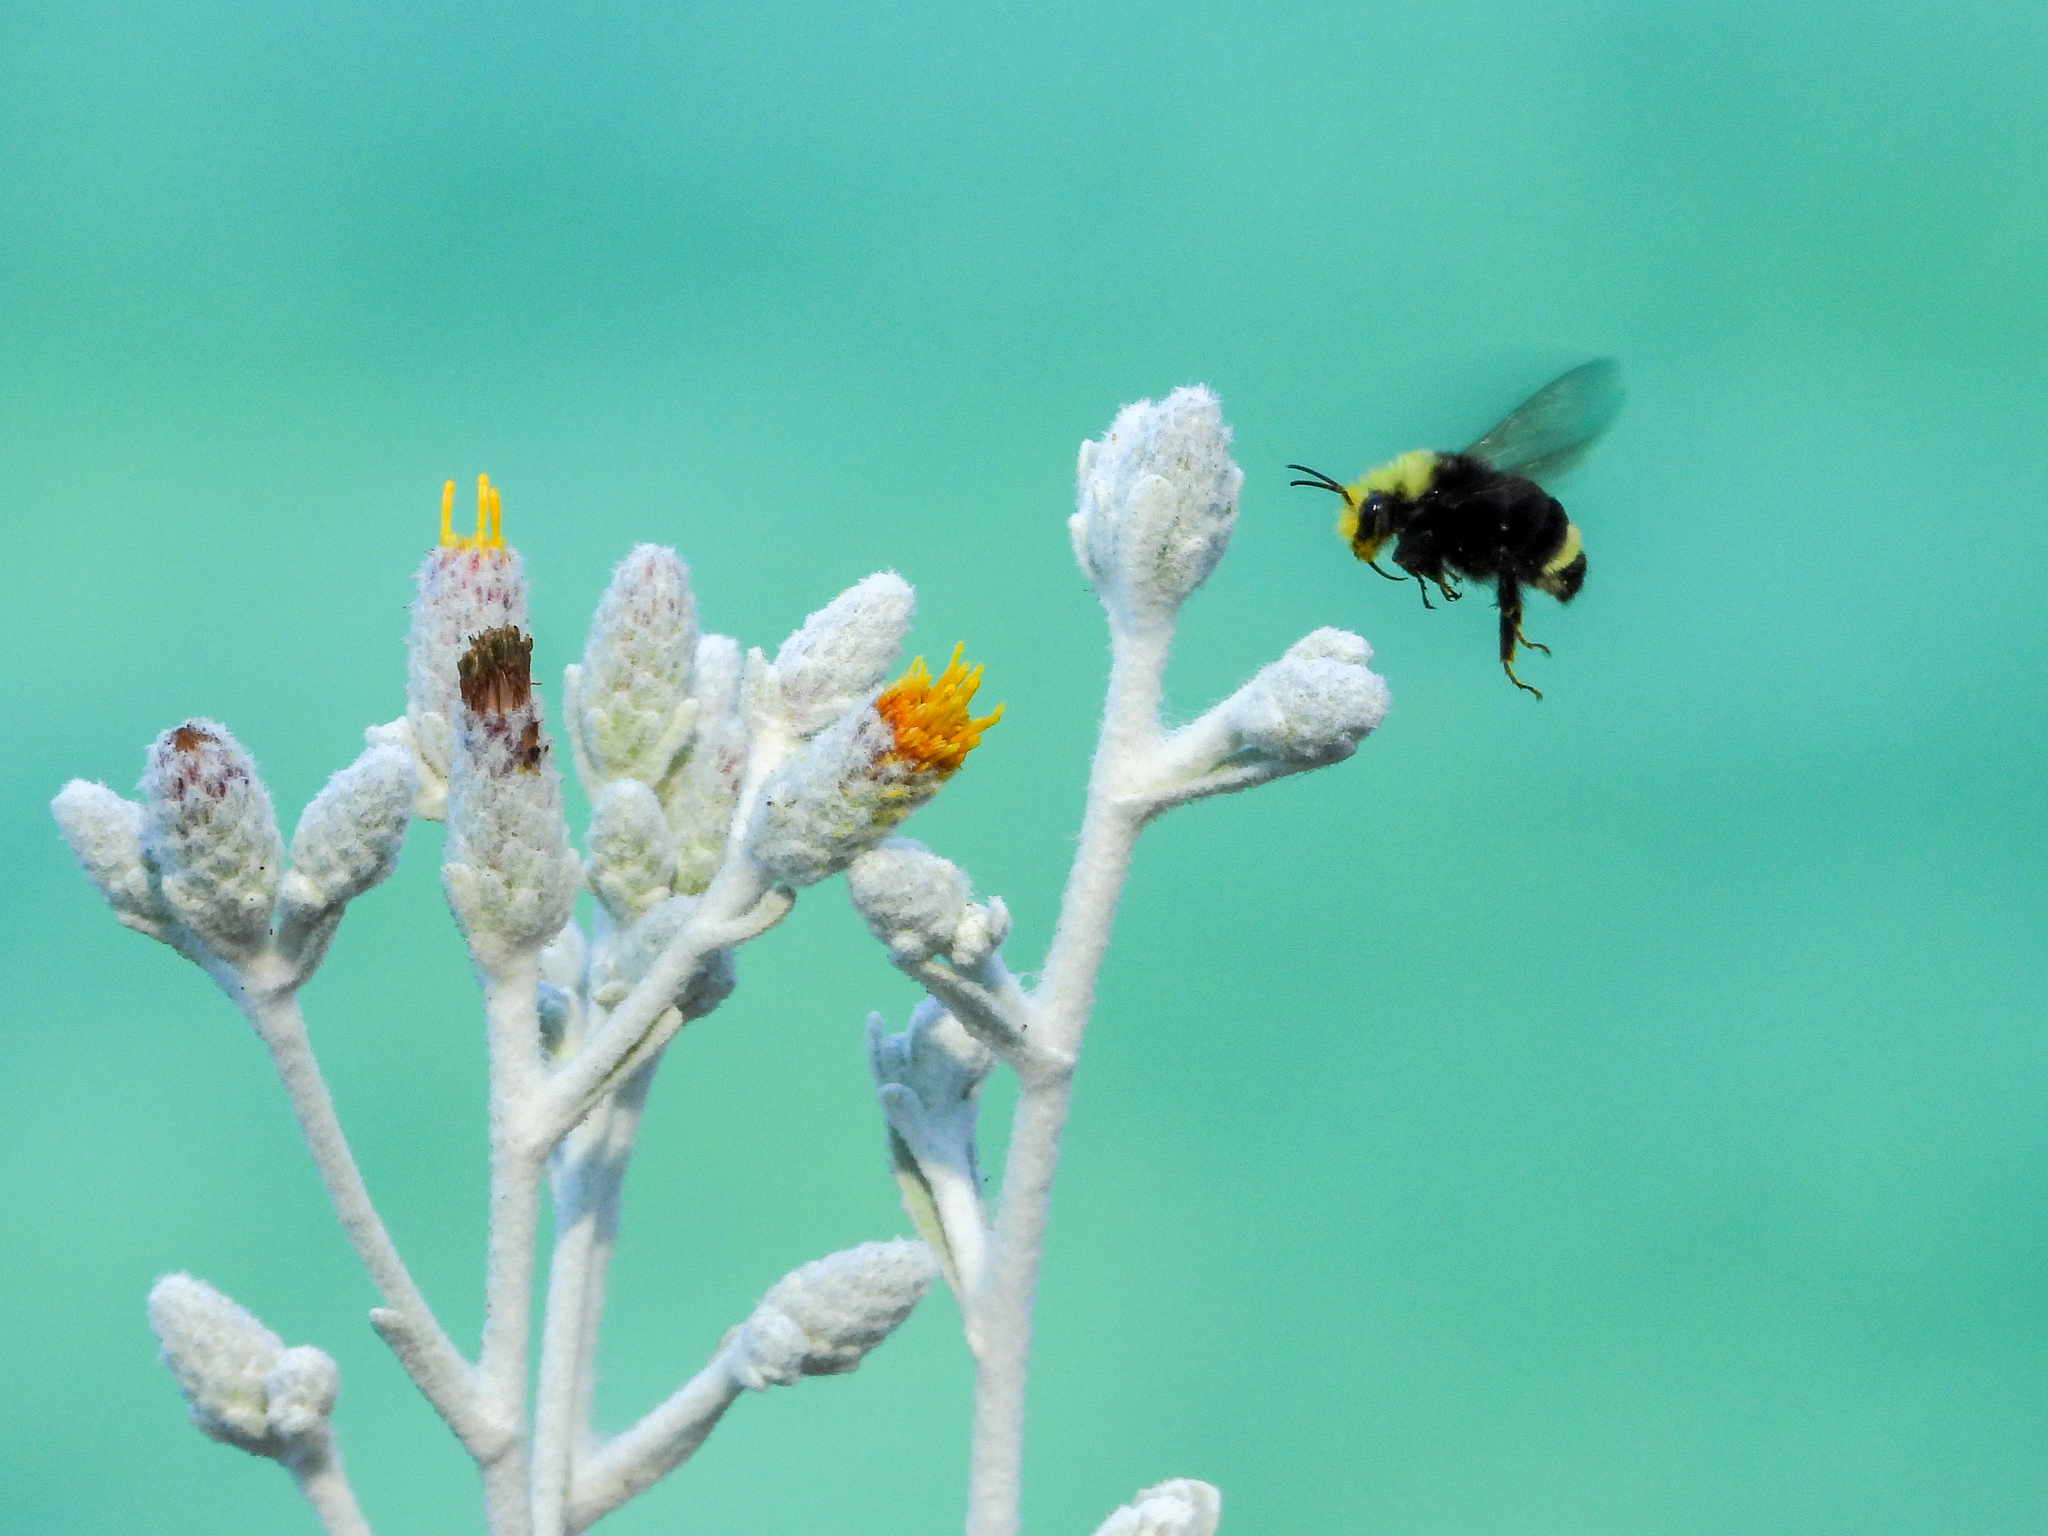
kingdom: Animalia
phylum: Arthropoda
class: Insecta
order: Hymenoptera
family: Apidae
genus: Bombus
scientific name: Bombus vosnesenskii
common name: Vosnesensky bumble bee
